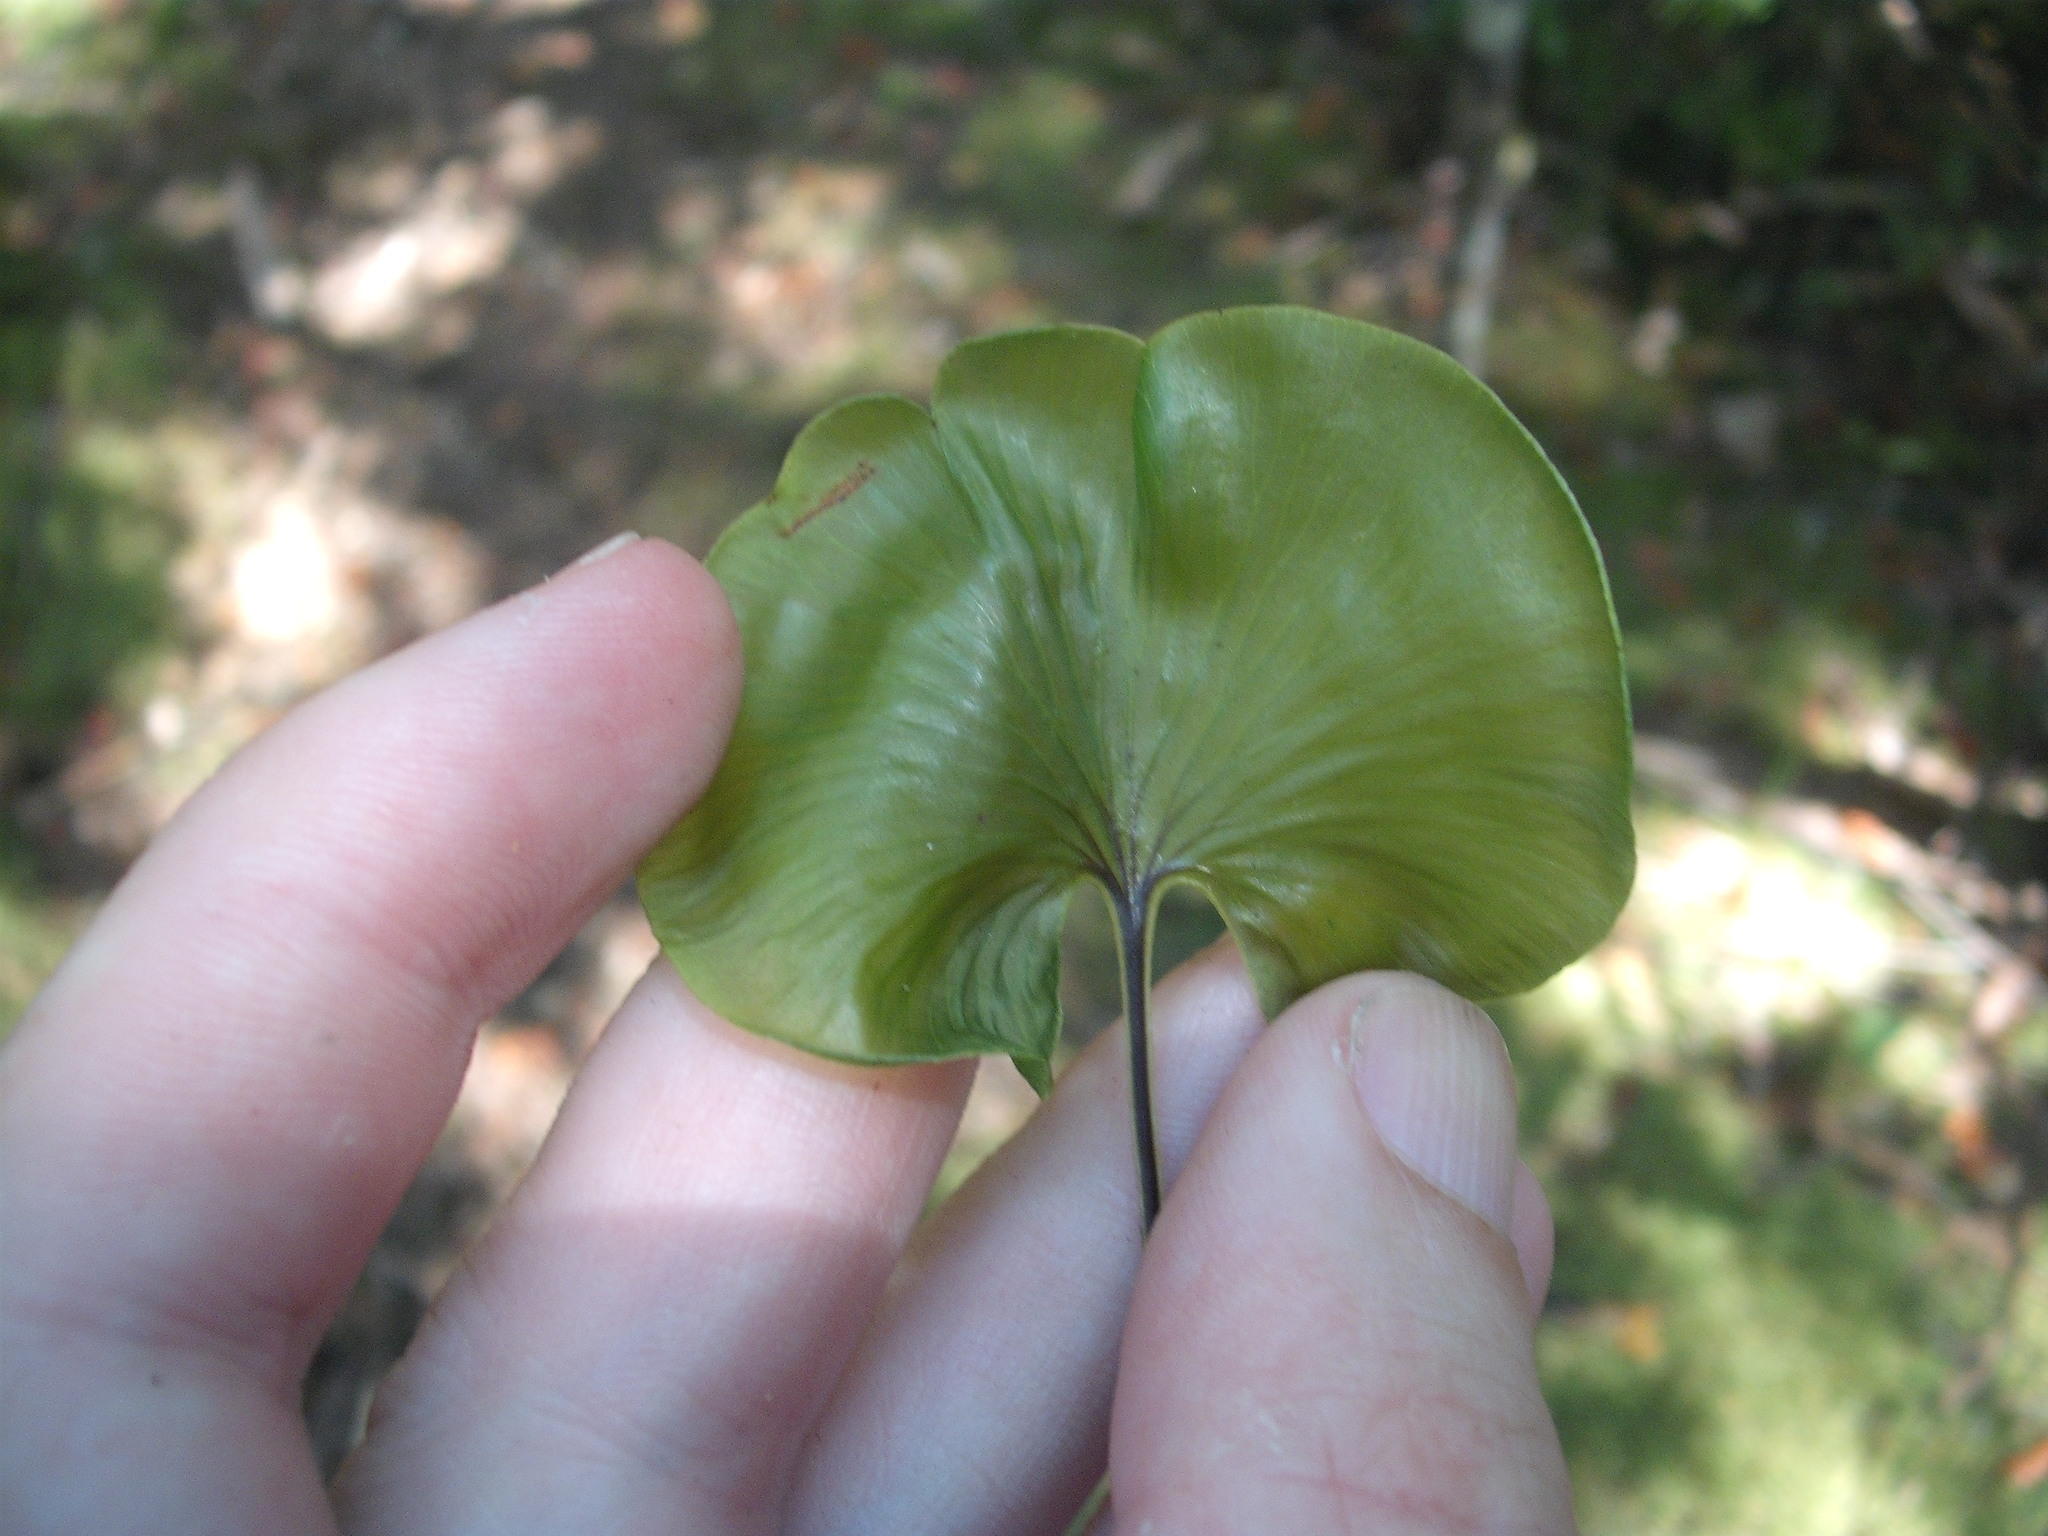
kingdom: Plantae
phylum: Tracheophyta
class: Polypodiopsida
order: Hymenophyllales
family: Hymenophyllaceae
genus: Hymenophyllum
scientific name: Hymenophyllum nephrophyllum
